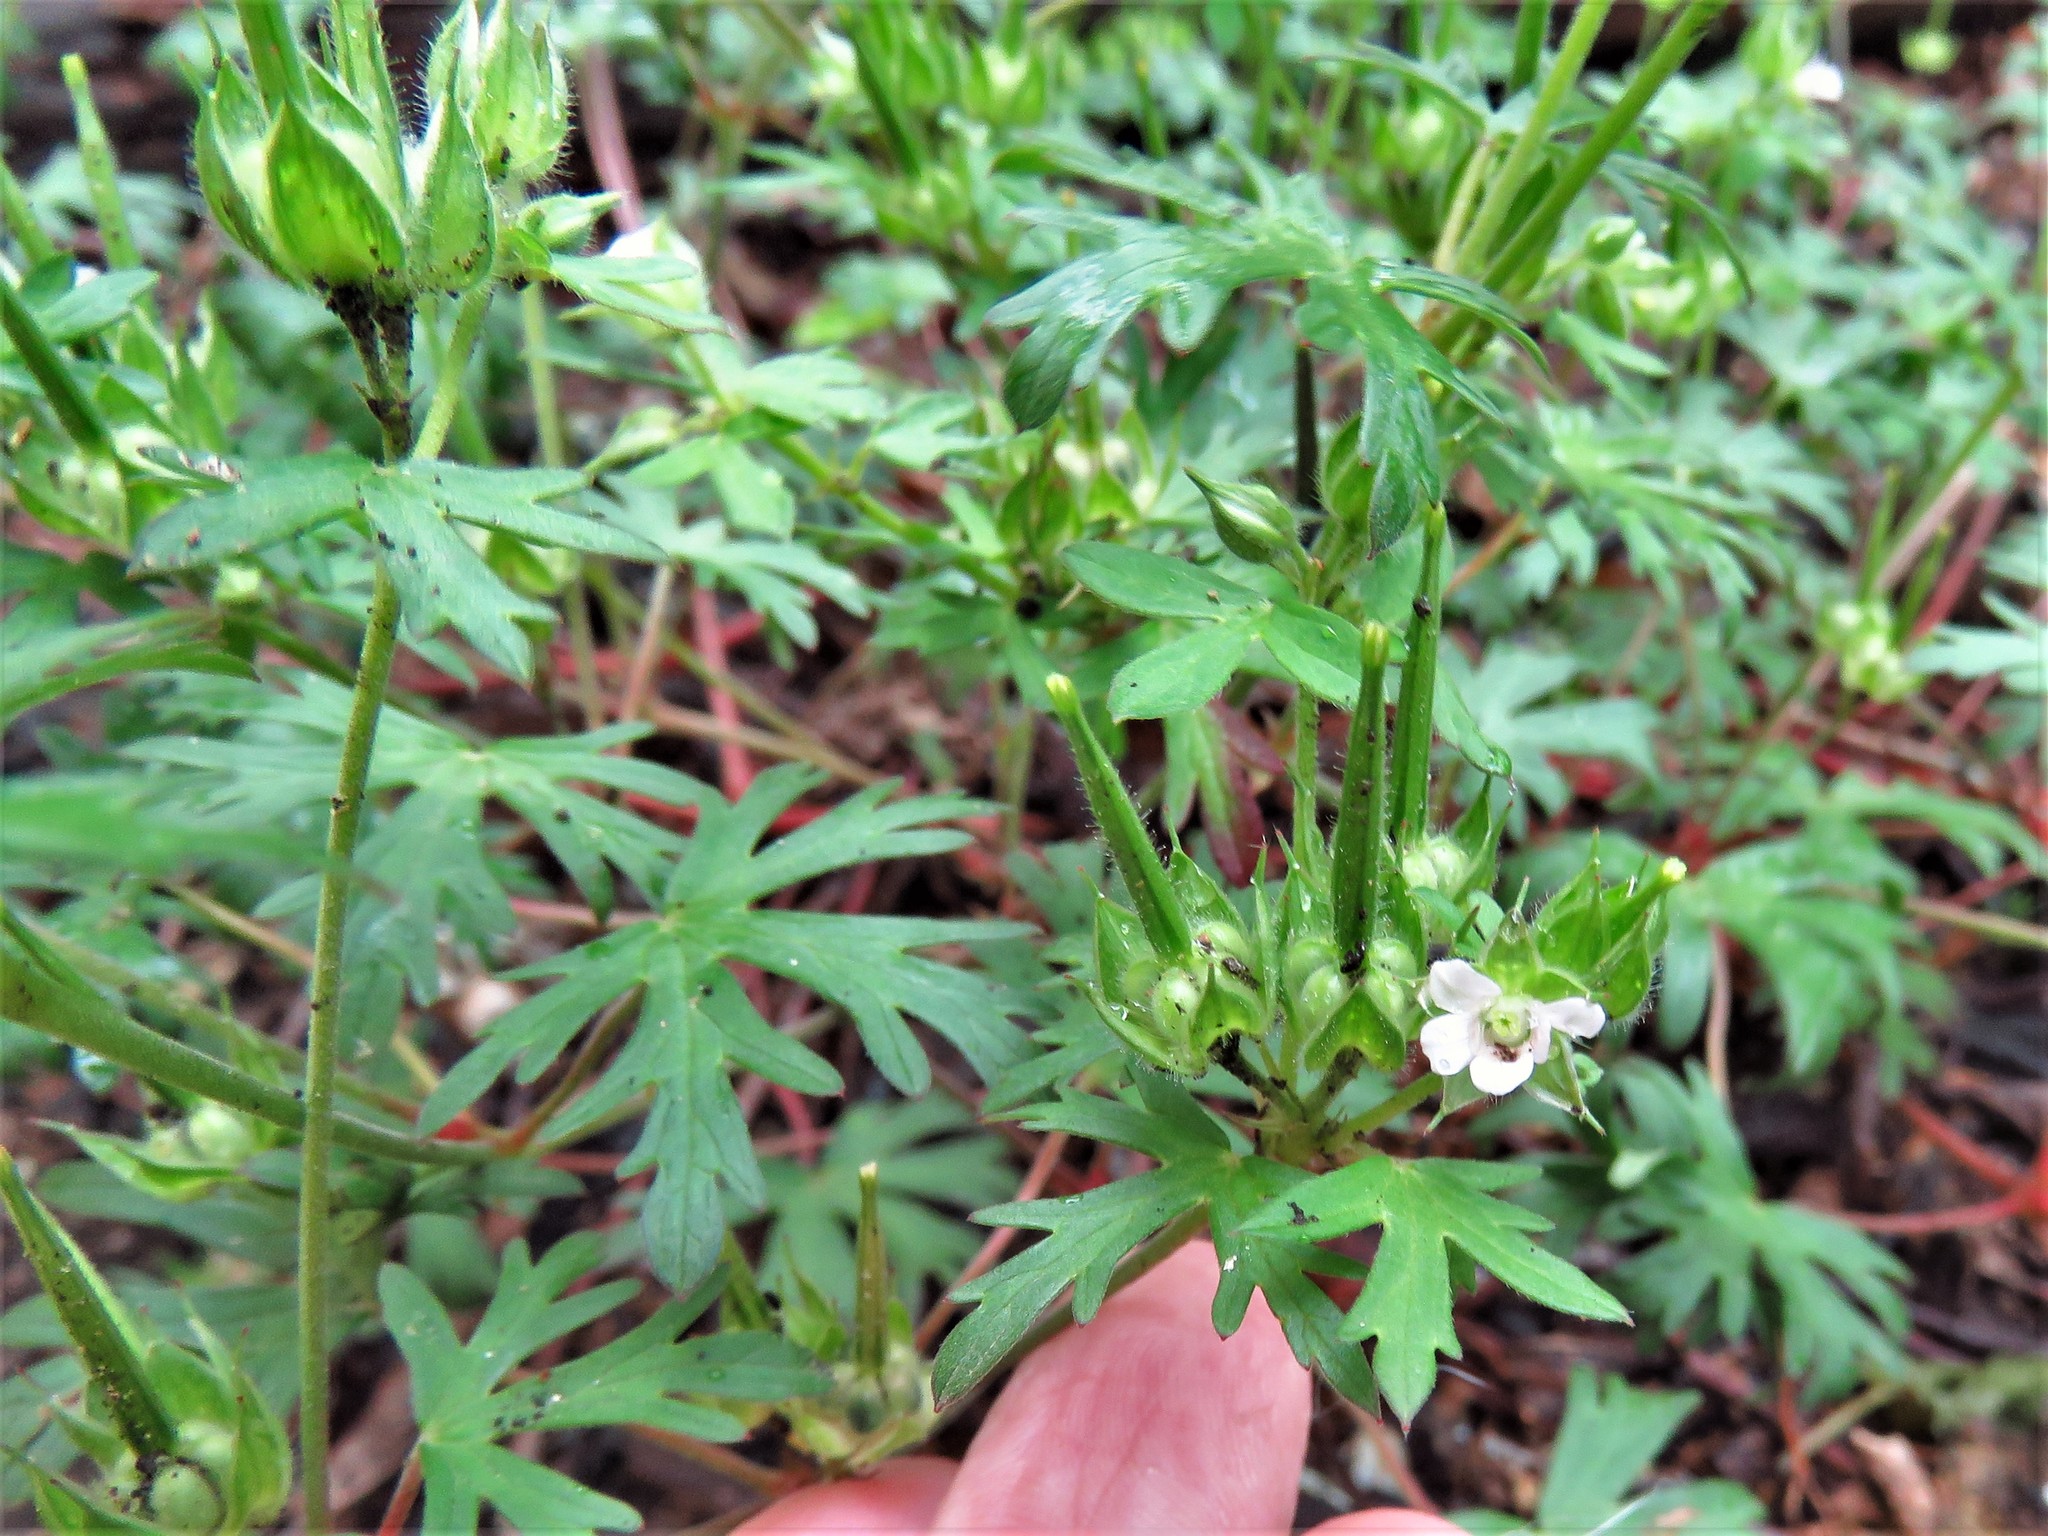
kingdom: Plantae
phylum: Tracheophyta
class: Magnoliopsida
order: Geraniales
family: Geraniaceae
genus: Geranium
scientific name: Geranium carolinianum
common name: Carolina crane's-bill
